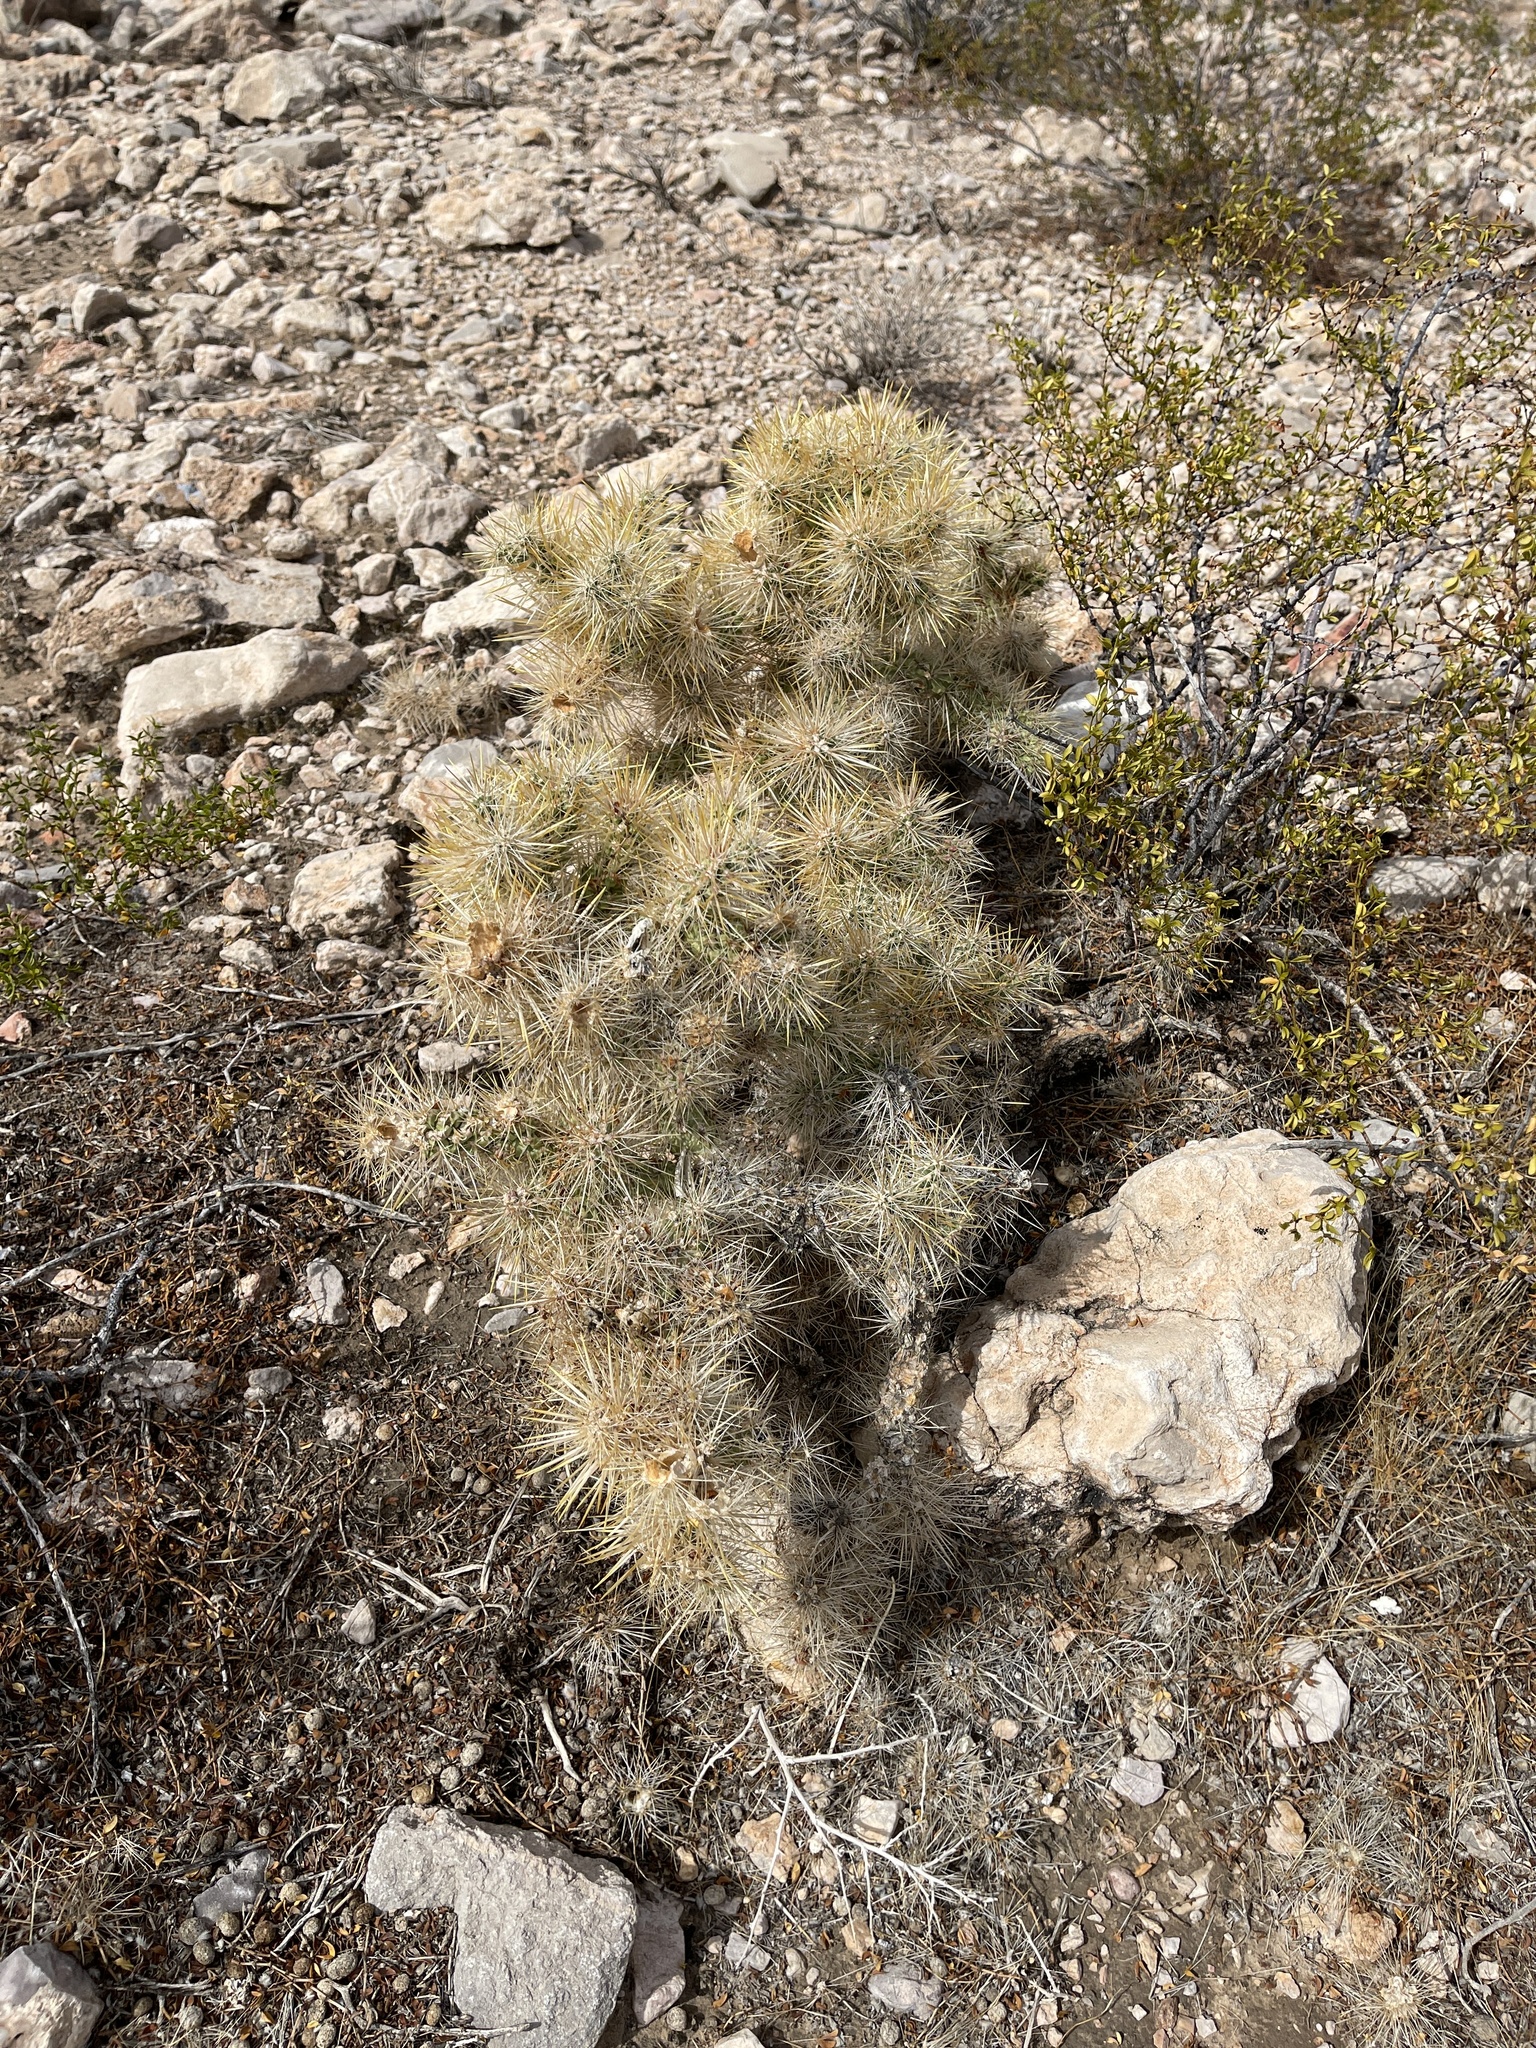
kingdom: Plantae
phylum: Tracheophyta
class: Magnoliopsida
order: Caryophyllales
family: Cactaceae
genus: Cylindropuntia
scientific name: Cylindropuntia echinocarpa
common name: Ground cholla
